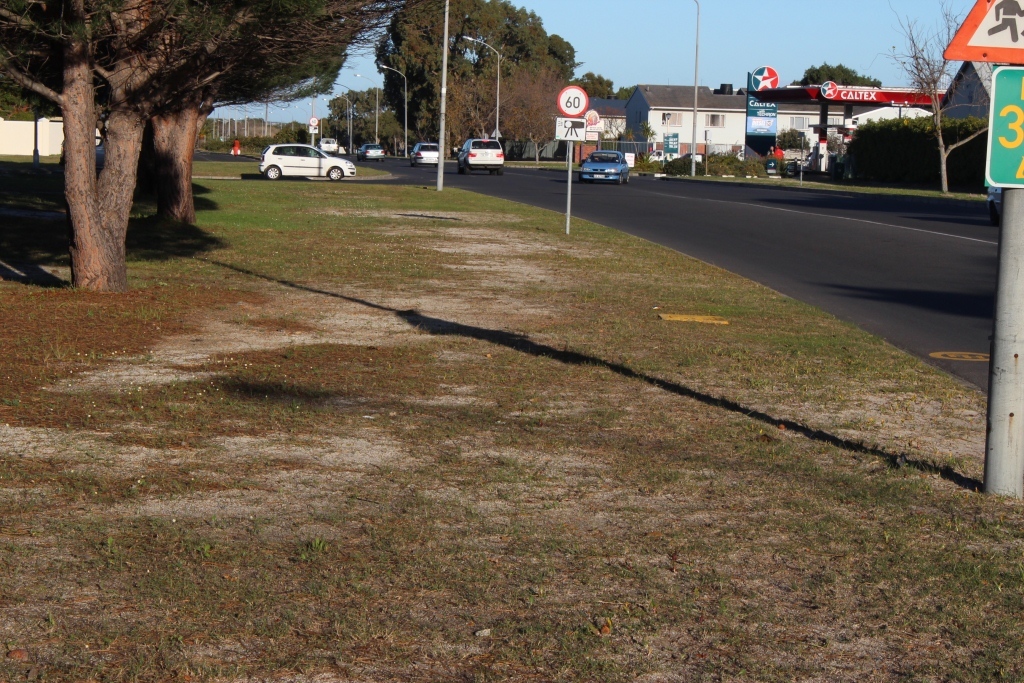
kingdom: Plantae
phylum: Tracheophyta
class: Liliopsida
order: Asparagales
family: Asparagaceae
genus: Lachenalia
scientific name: Lachenalia reflexa
